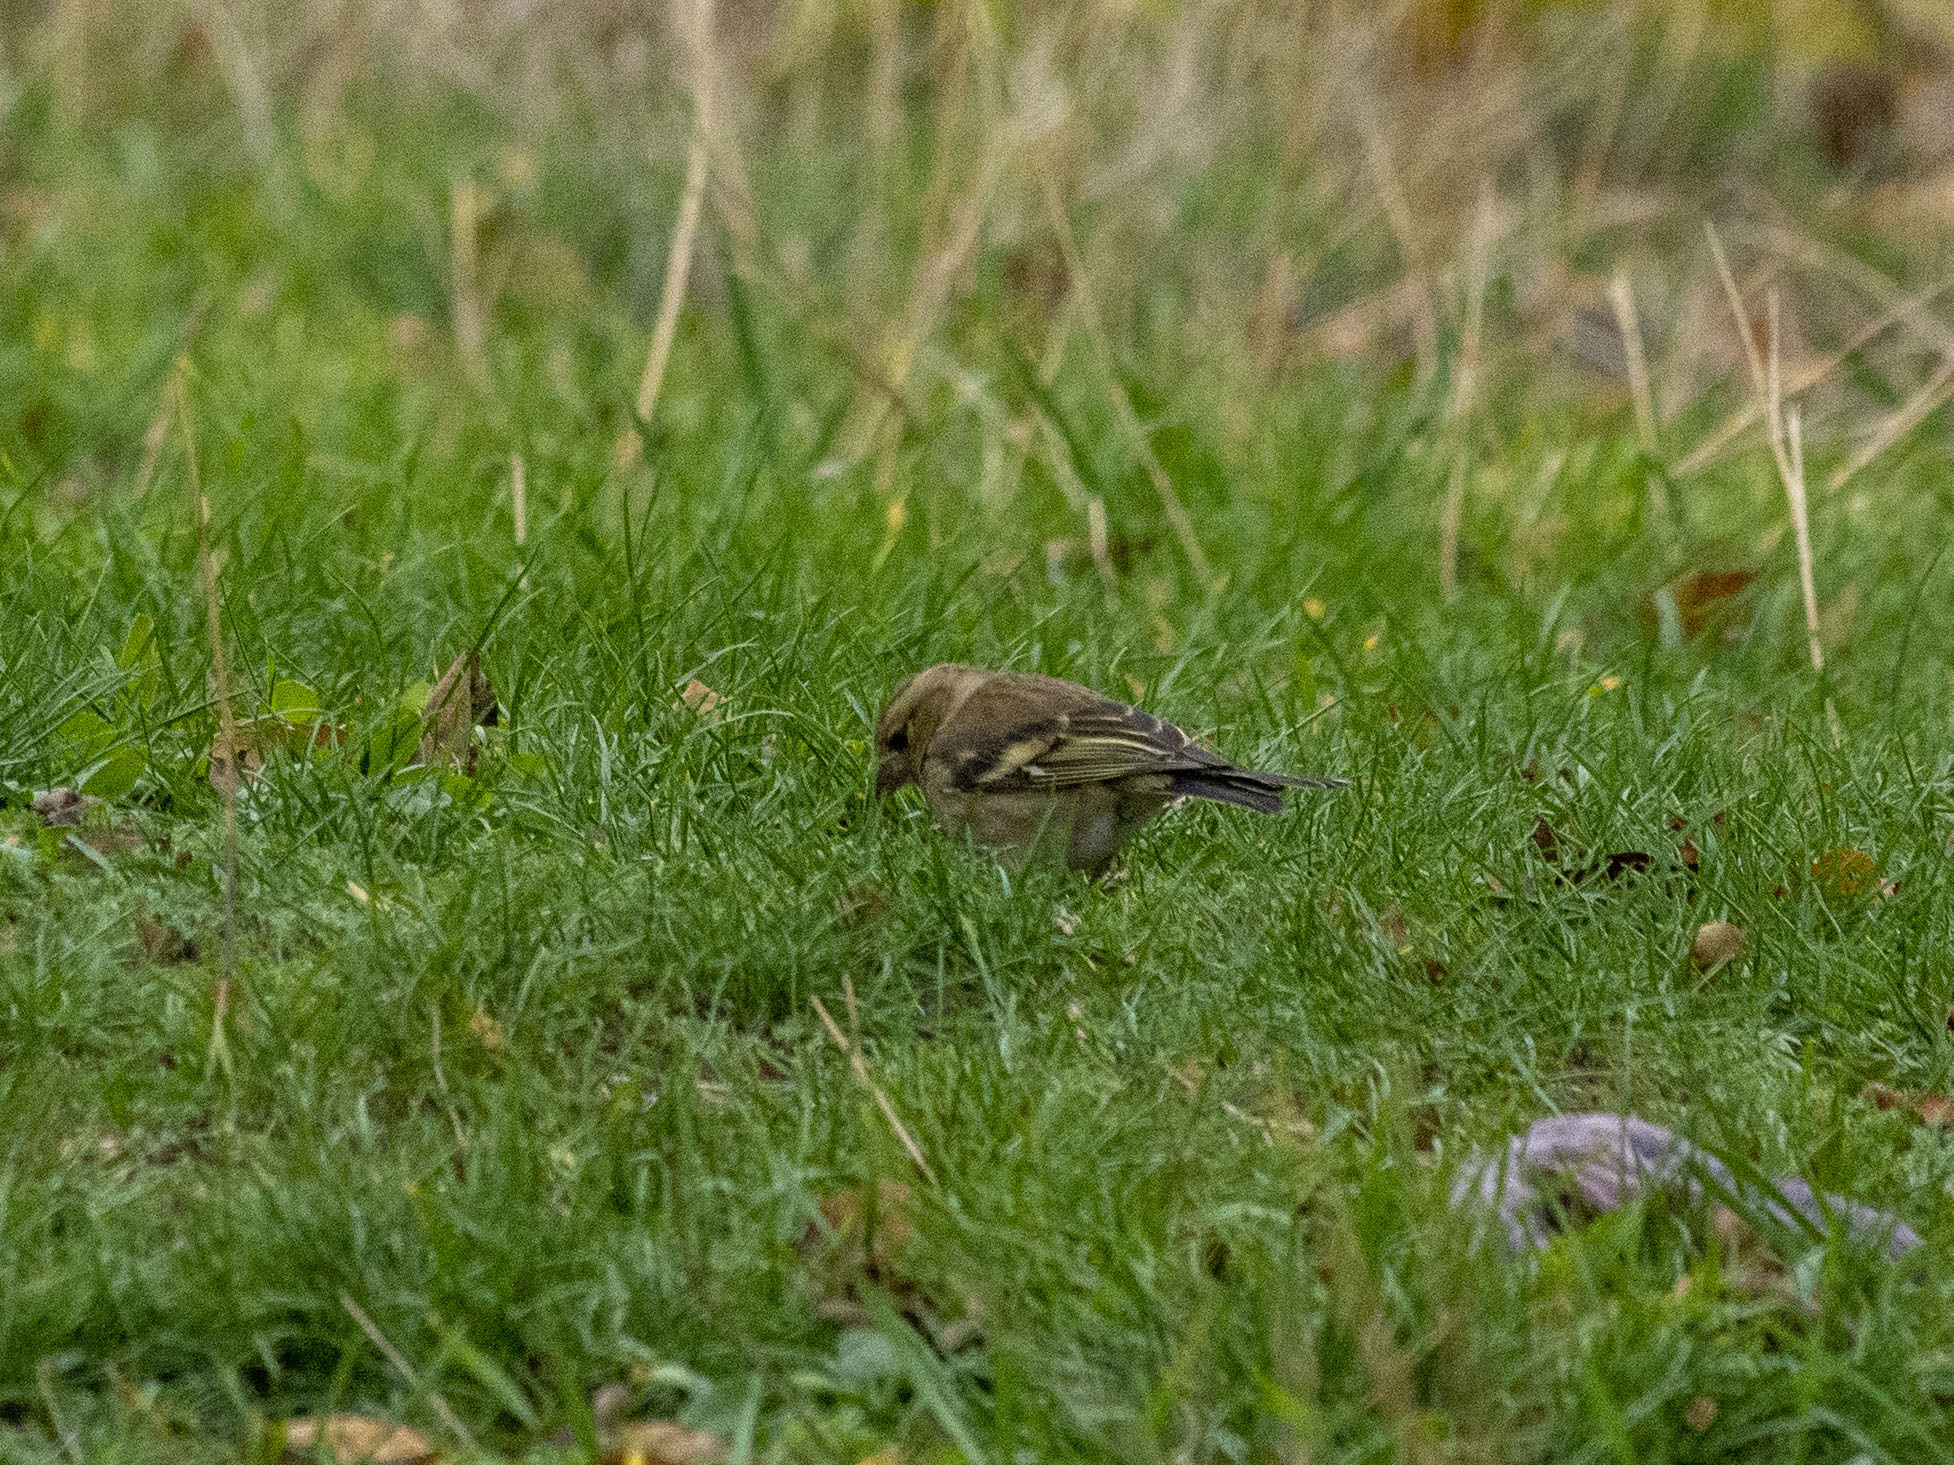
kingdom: Animalia
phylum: Chordata
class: Aves
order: Passeriformes
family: Fringillidae
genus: Fringilla
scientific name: Fringilla coelebs
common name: Common chaffinch
